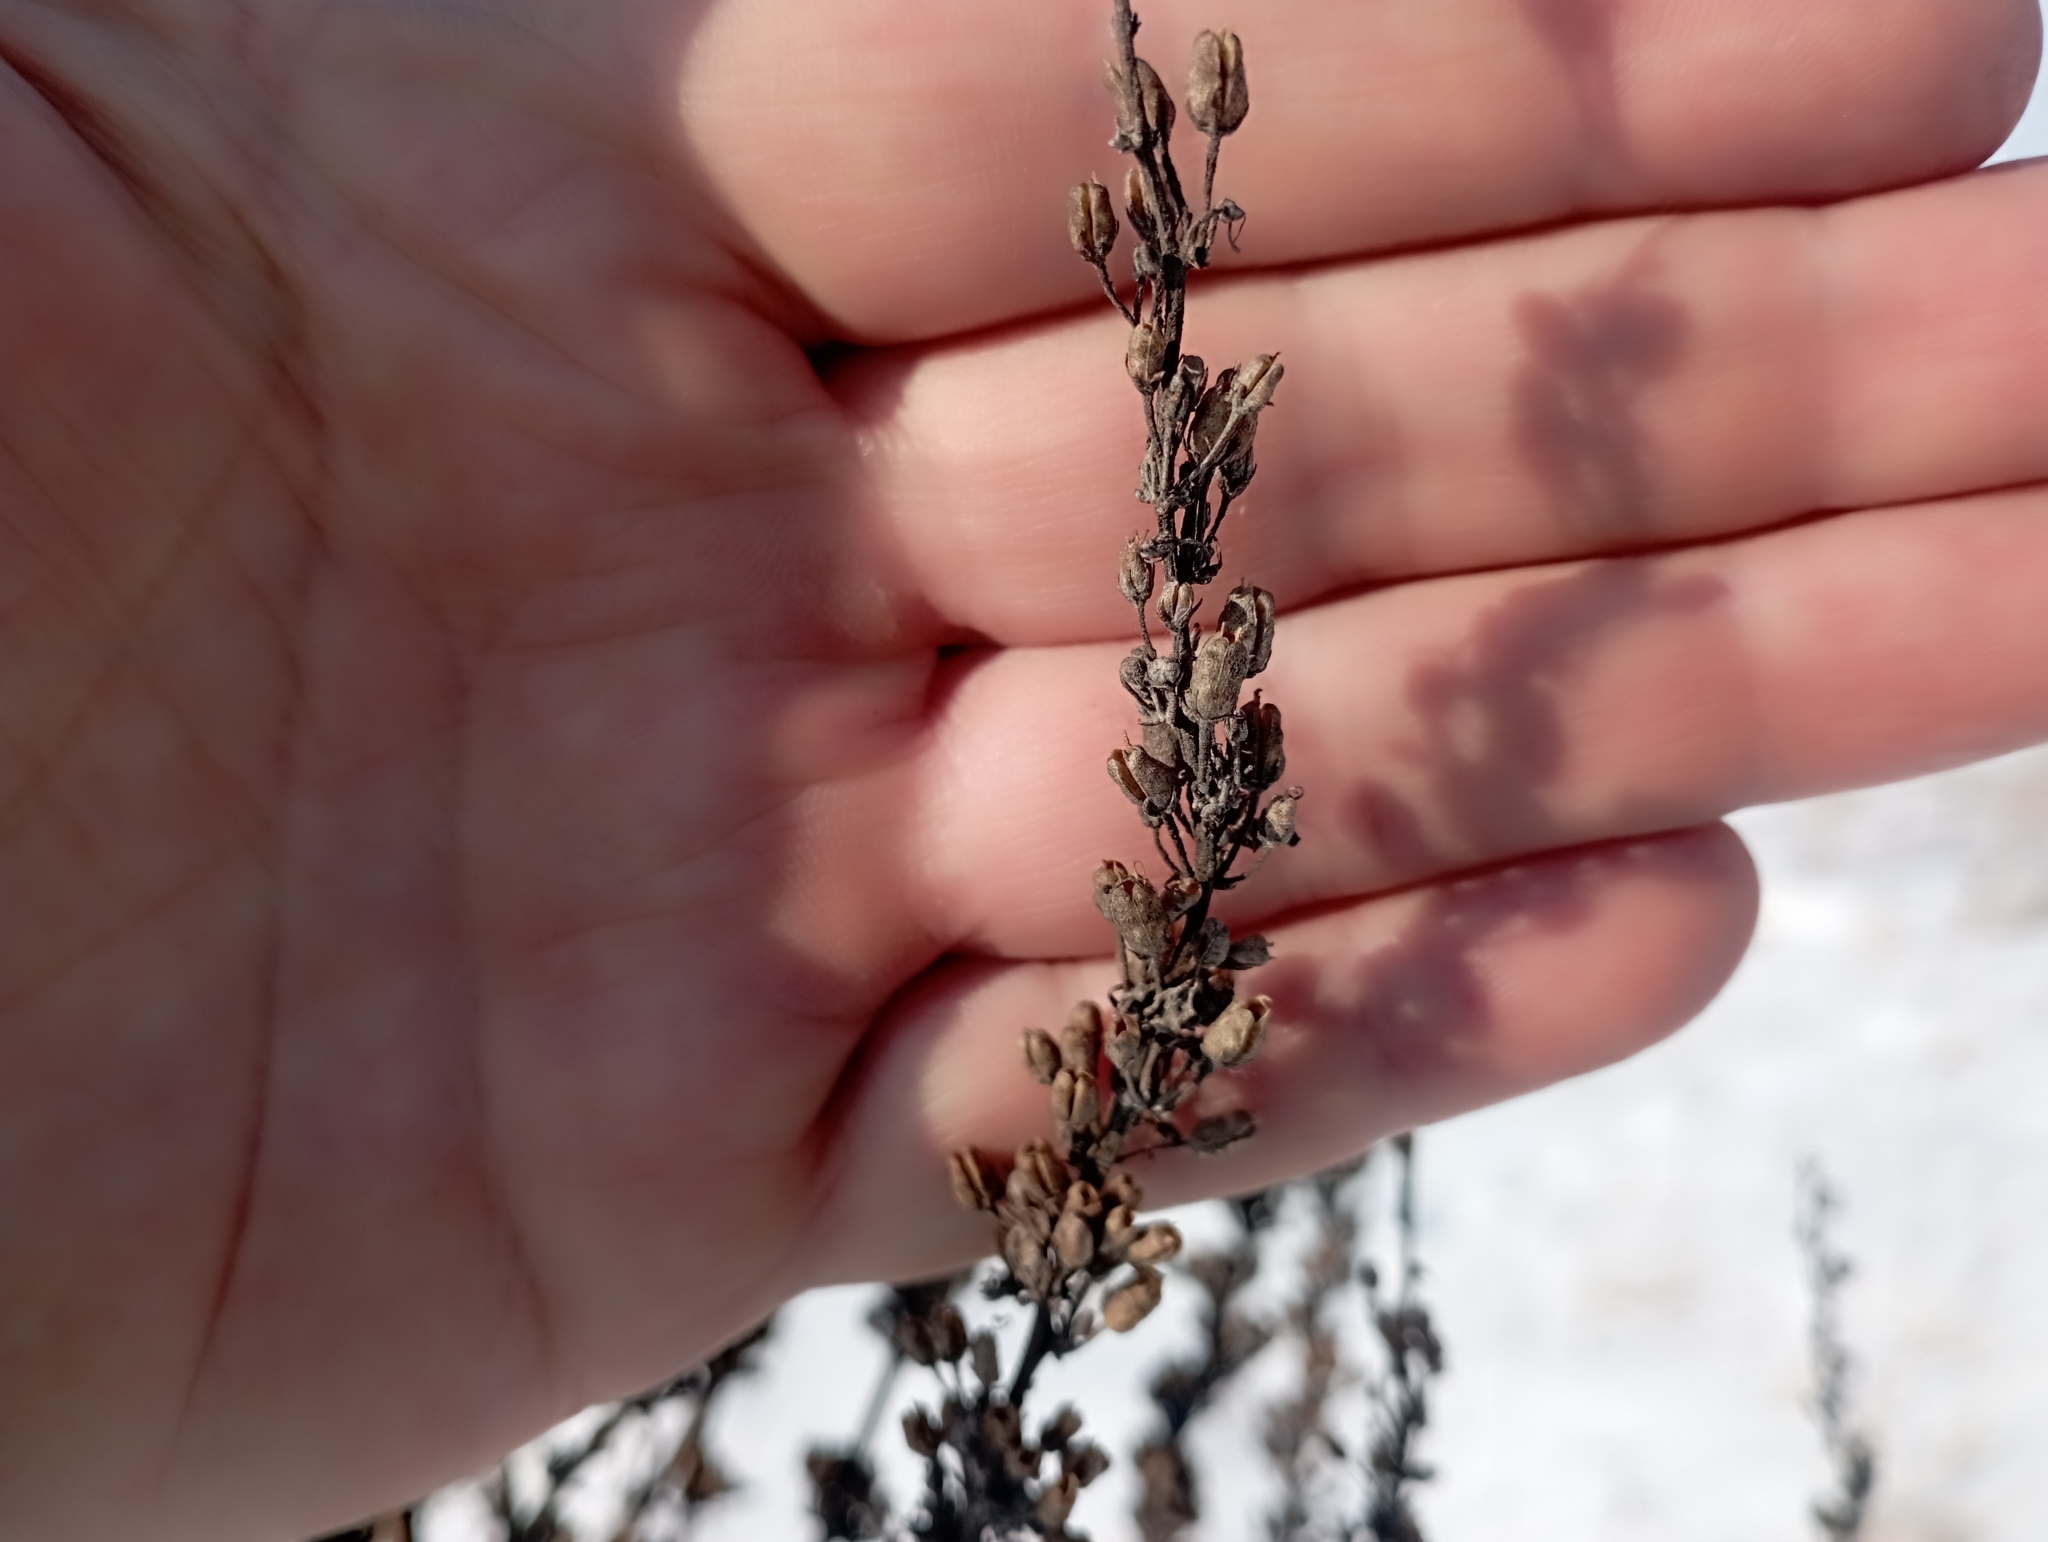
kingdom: Plantae
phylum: Tracheophyta
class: Magnoliopsida
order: Lamiales
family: Scrophulariaceae
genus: Verbascum
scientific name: Verbascum lychnitis
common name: White mullein
